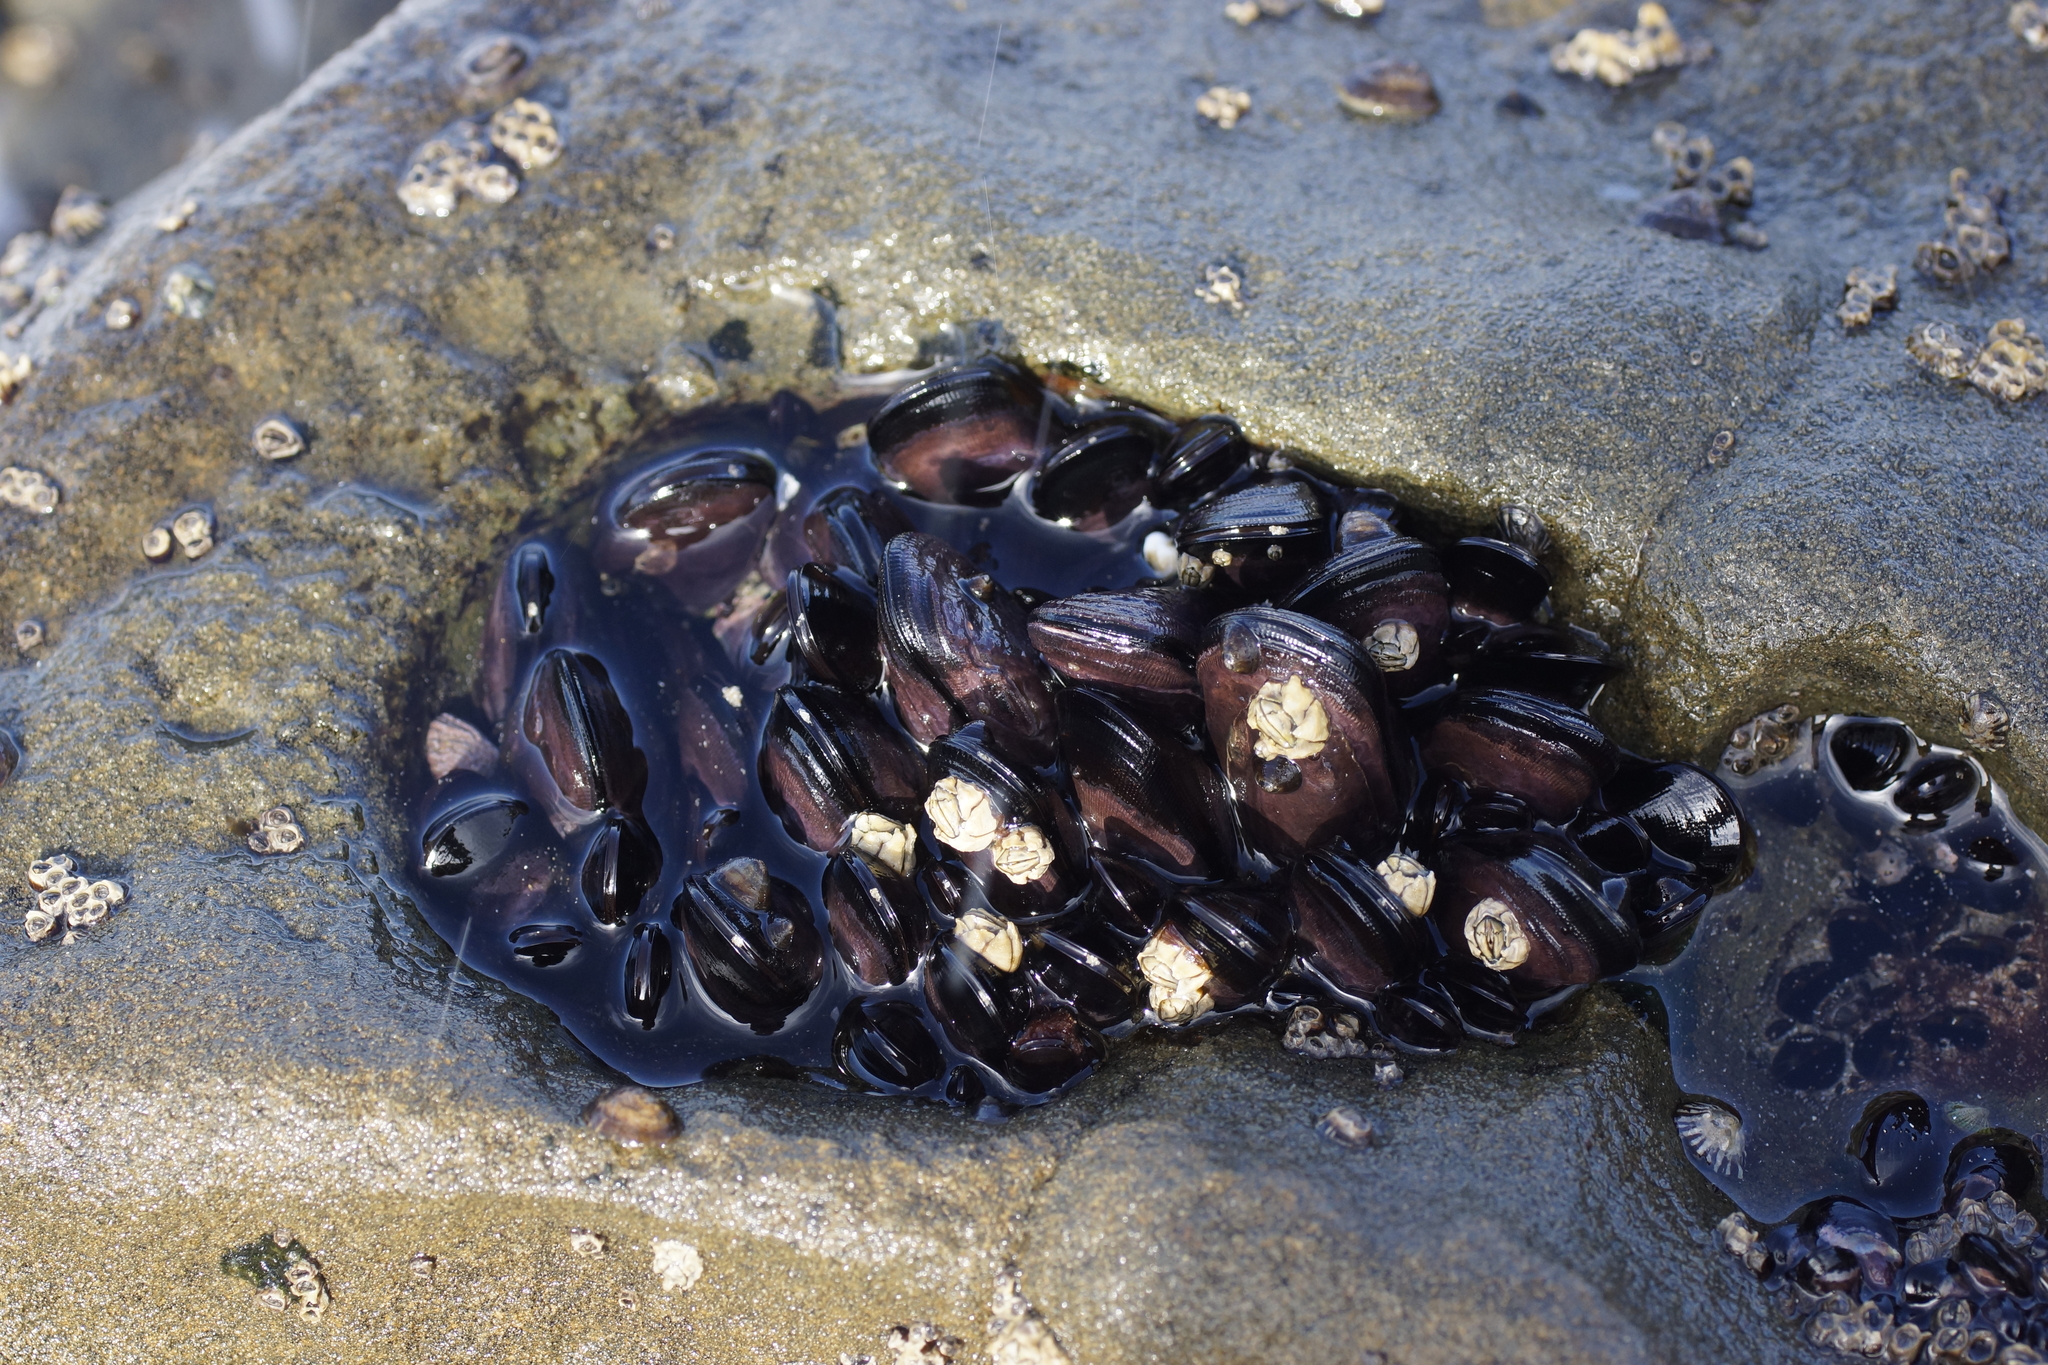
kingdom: Animalia
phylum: Mollusca
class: Bivalvia
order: Mytilida
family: Mytilidae
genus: Brachidontes
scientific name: Brachidontes rostratus
